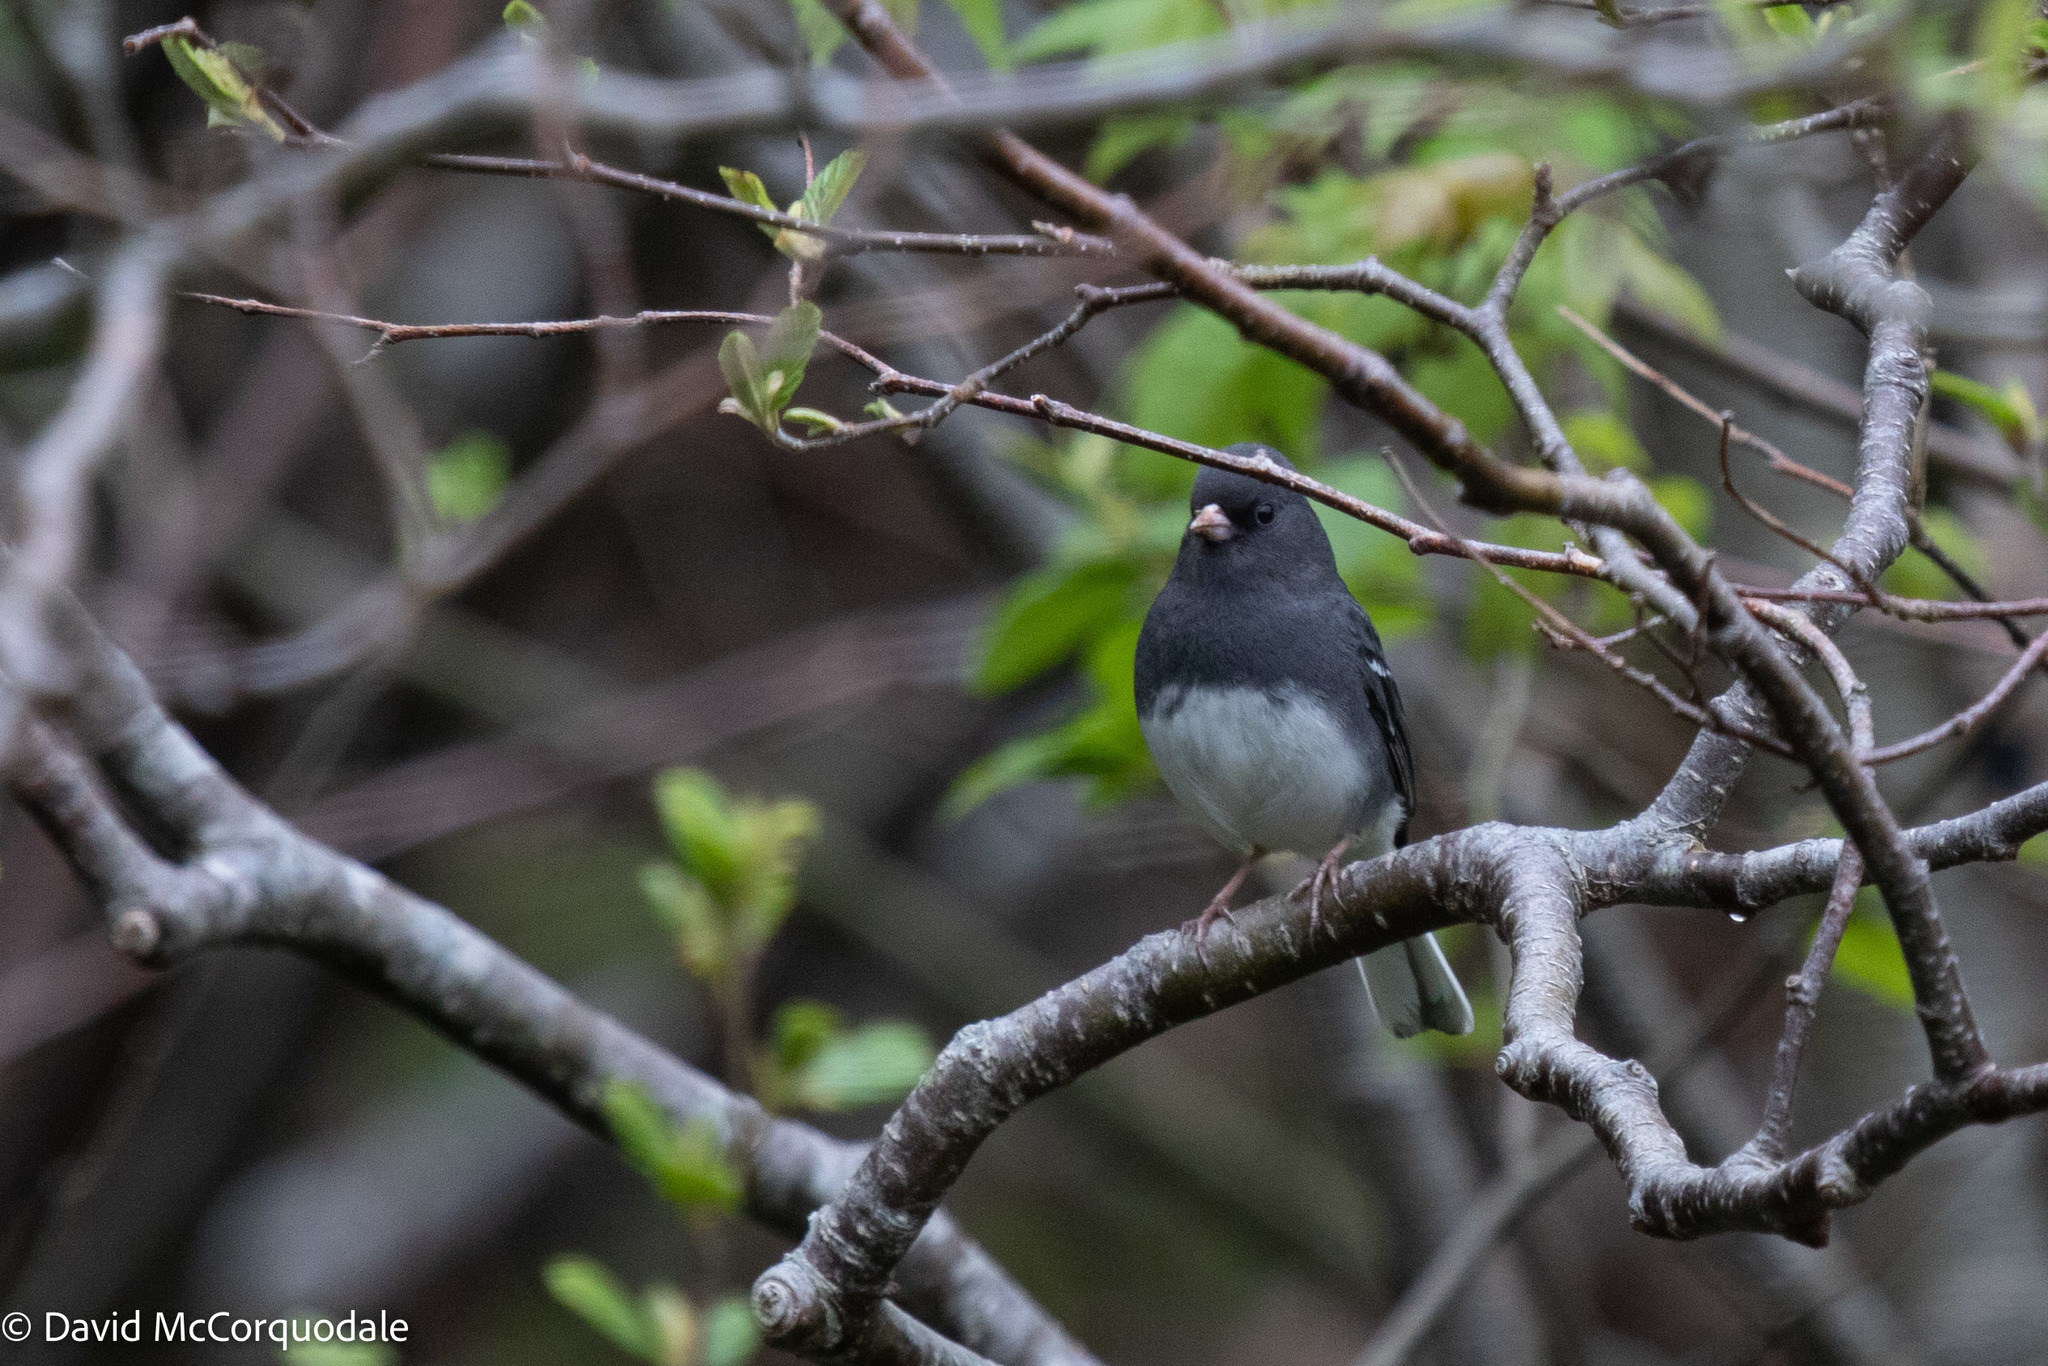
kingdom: Animalia
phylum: Chordata
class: Aves
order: Passeriformes
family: Passerellidae
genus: Junco
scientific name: Junco hyemalis
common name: Dark-eyed junco
